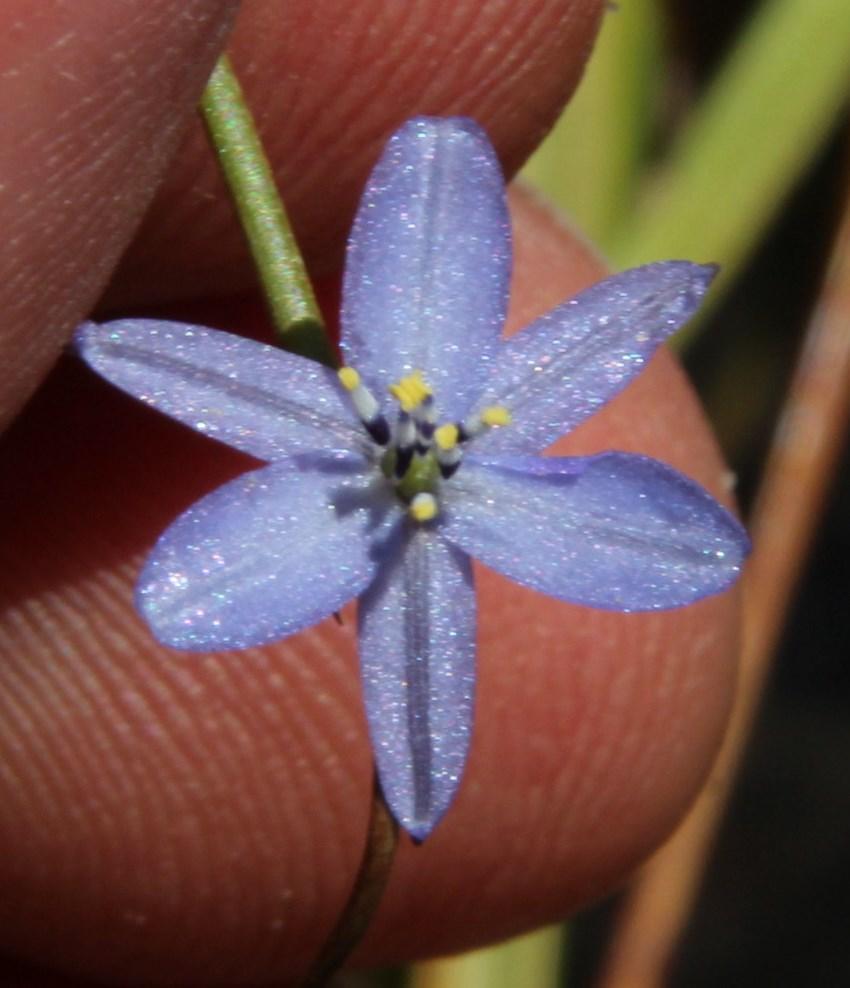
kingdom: Plantae
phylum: Tracheophyta
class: Liliopsida
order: Asparagales
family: Asphodelaceae
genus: Caesia
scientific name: Caesia contorta
